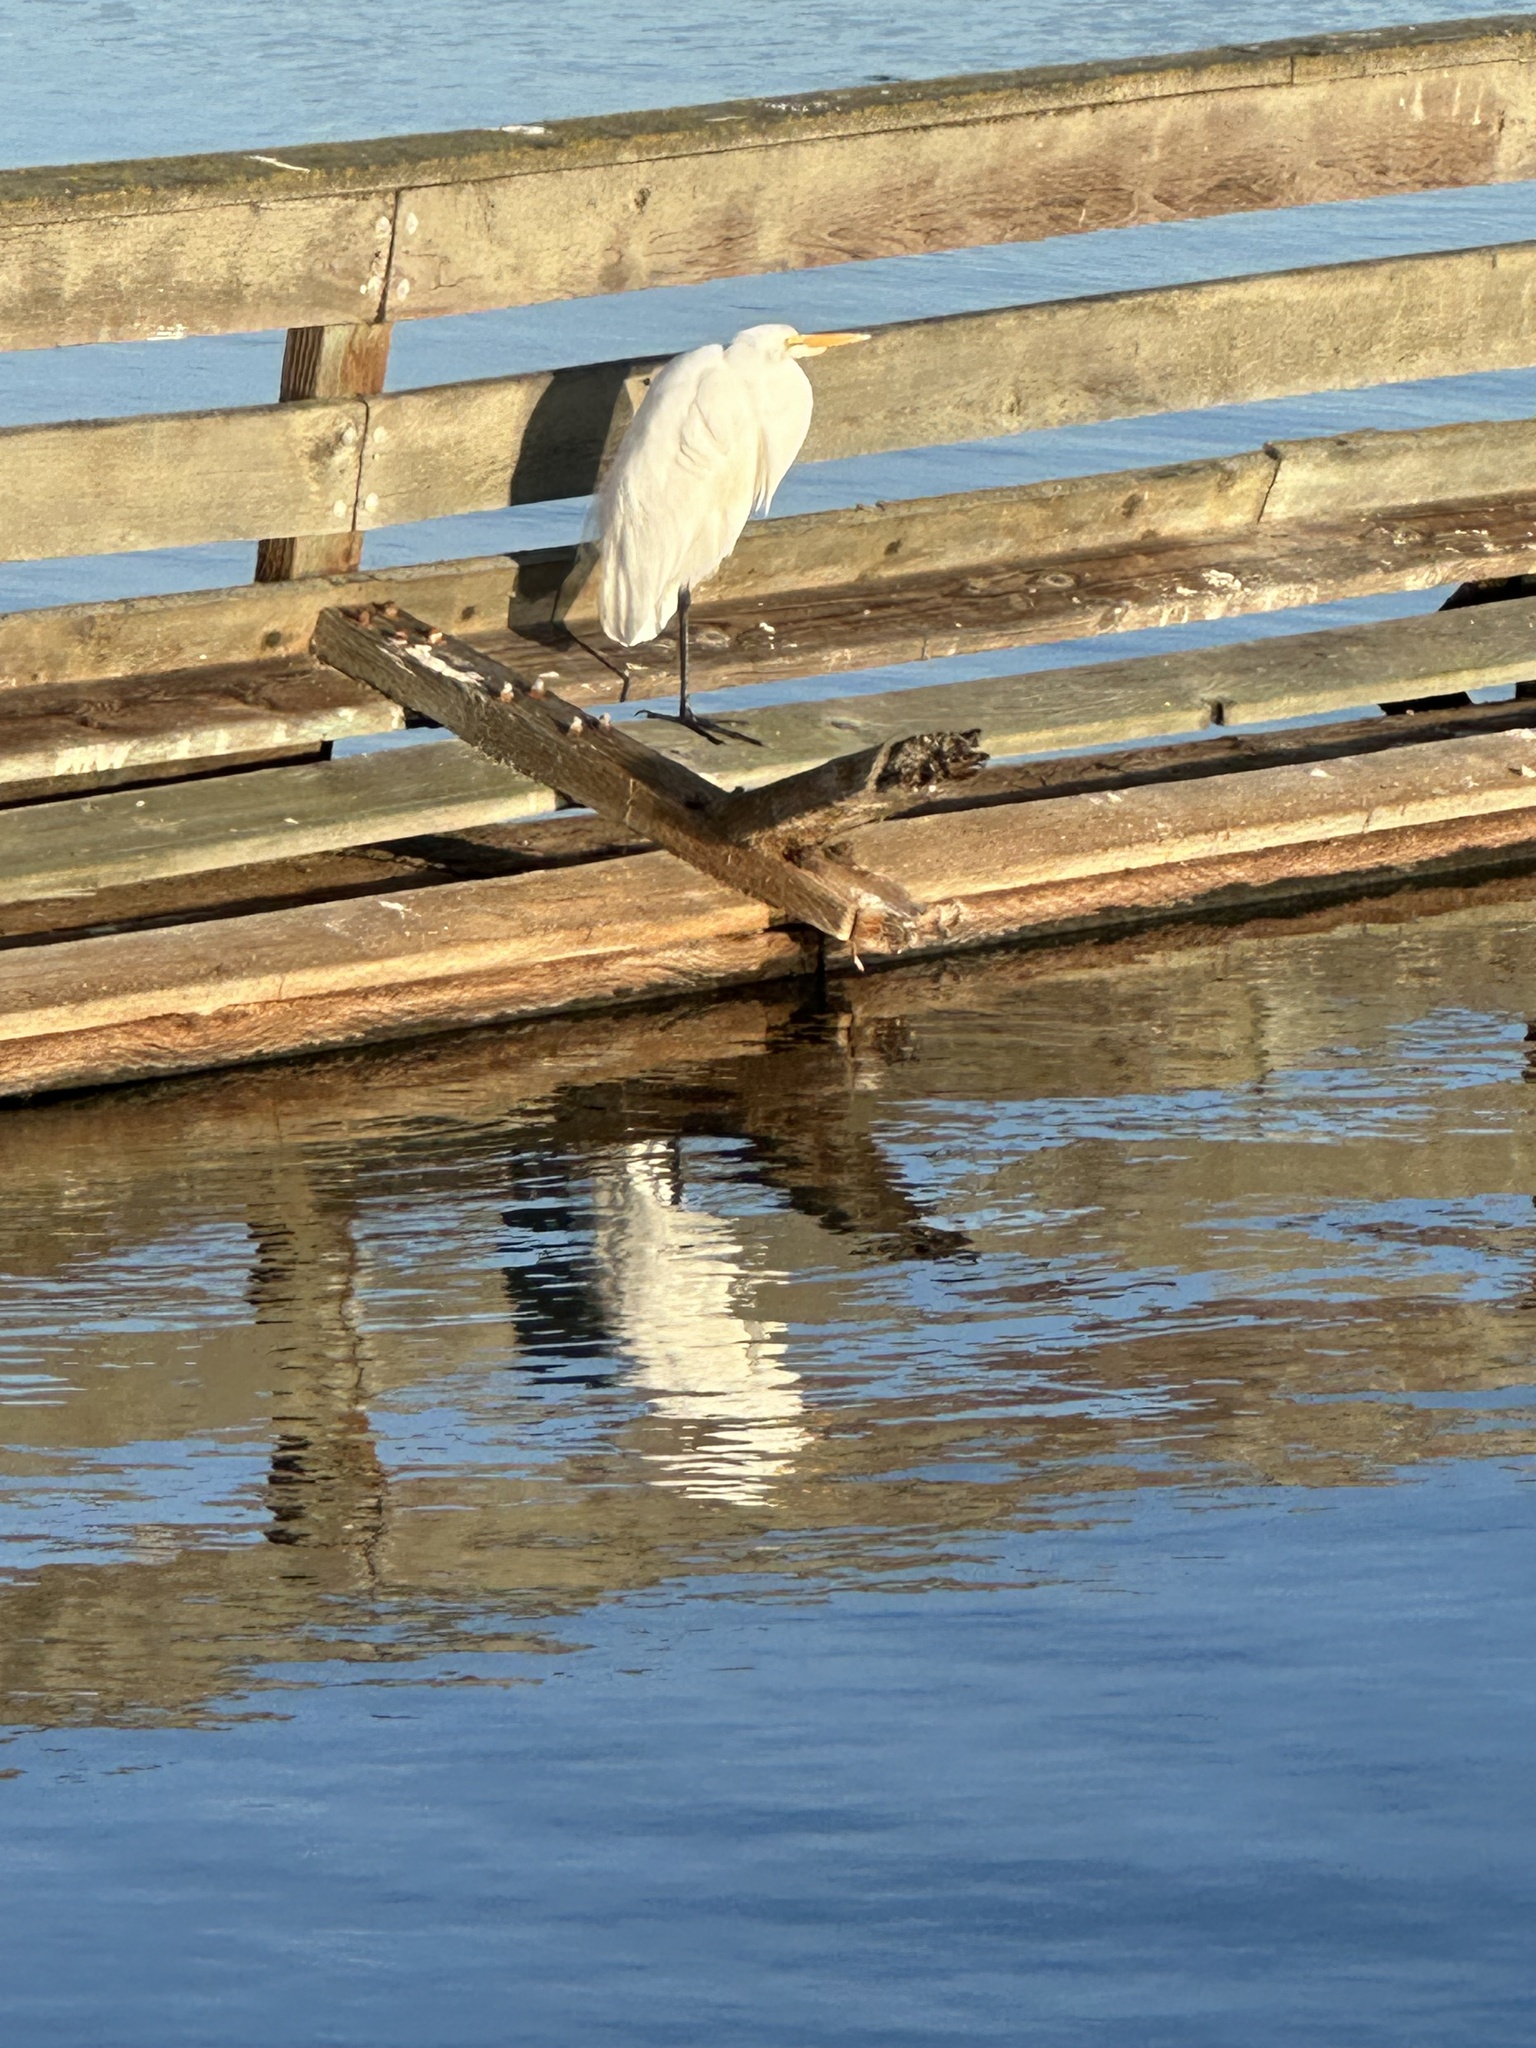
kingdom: Animalia
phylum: Chordata
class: Aves
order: Pelecaniformes
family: Ardeidae
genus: Ardea
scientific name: Ardea alba
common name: Great egret
